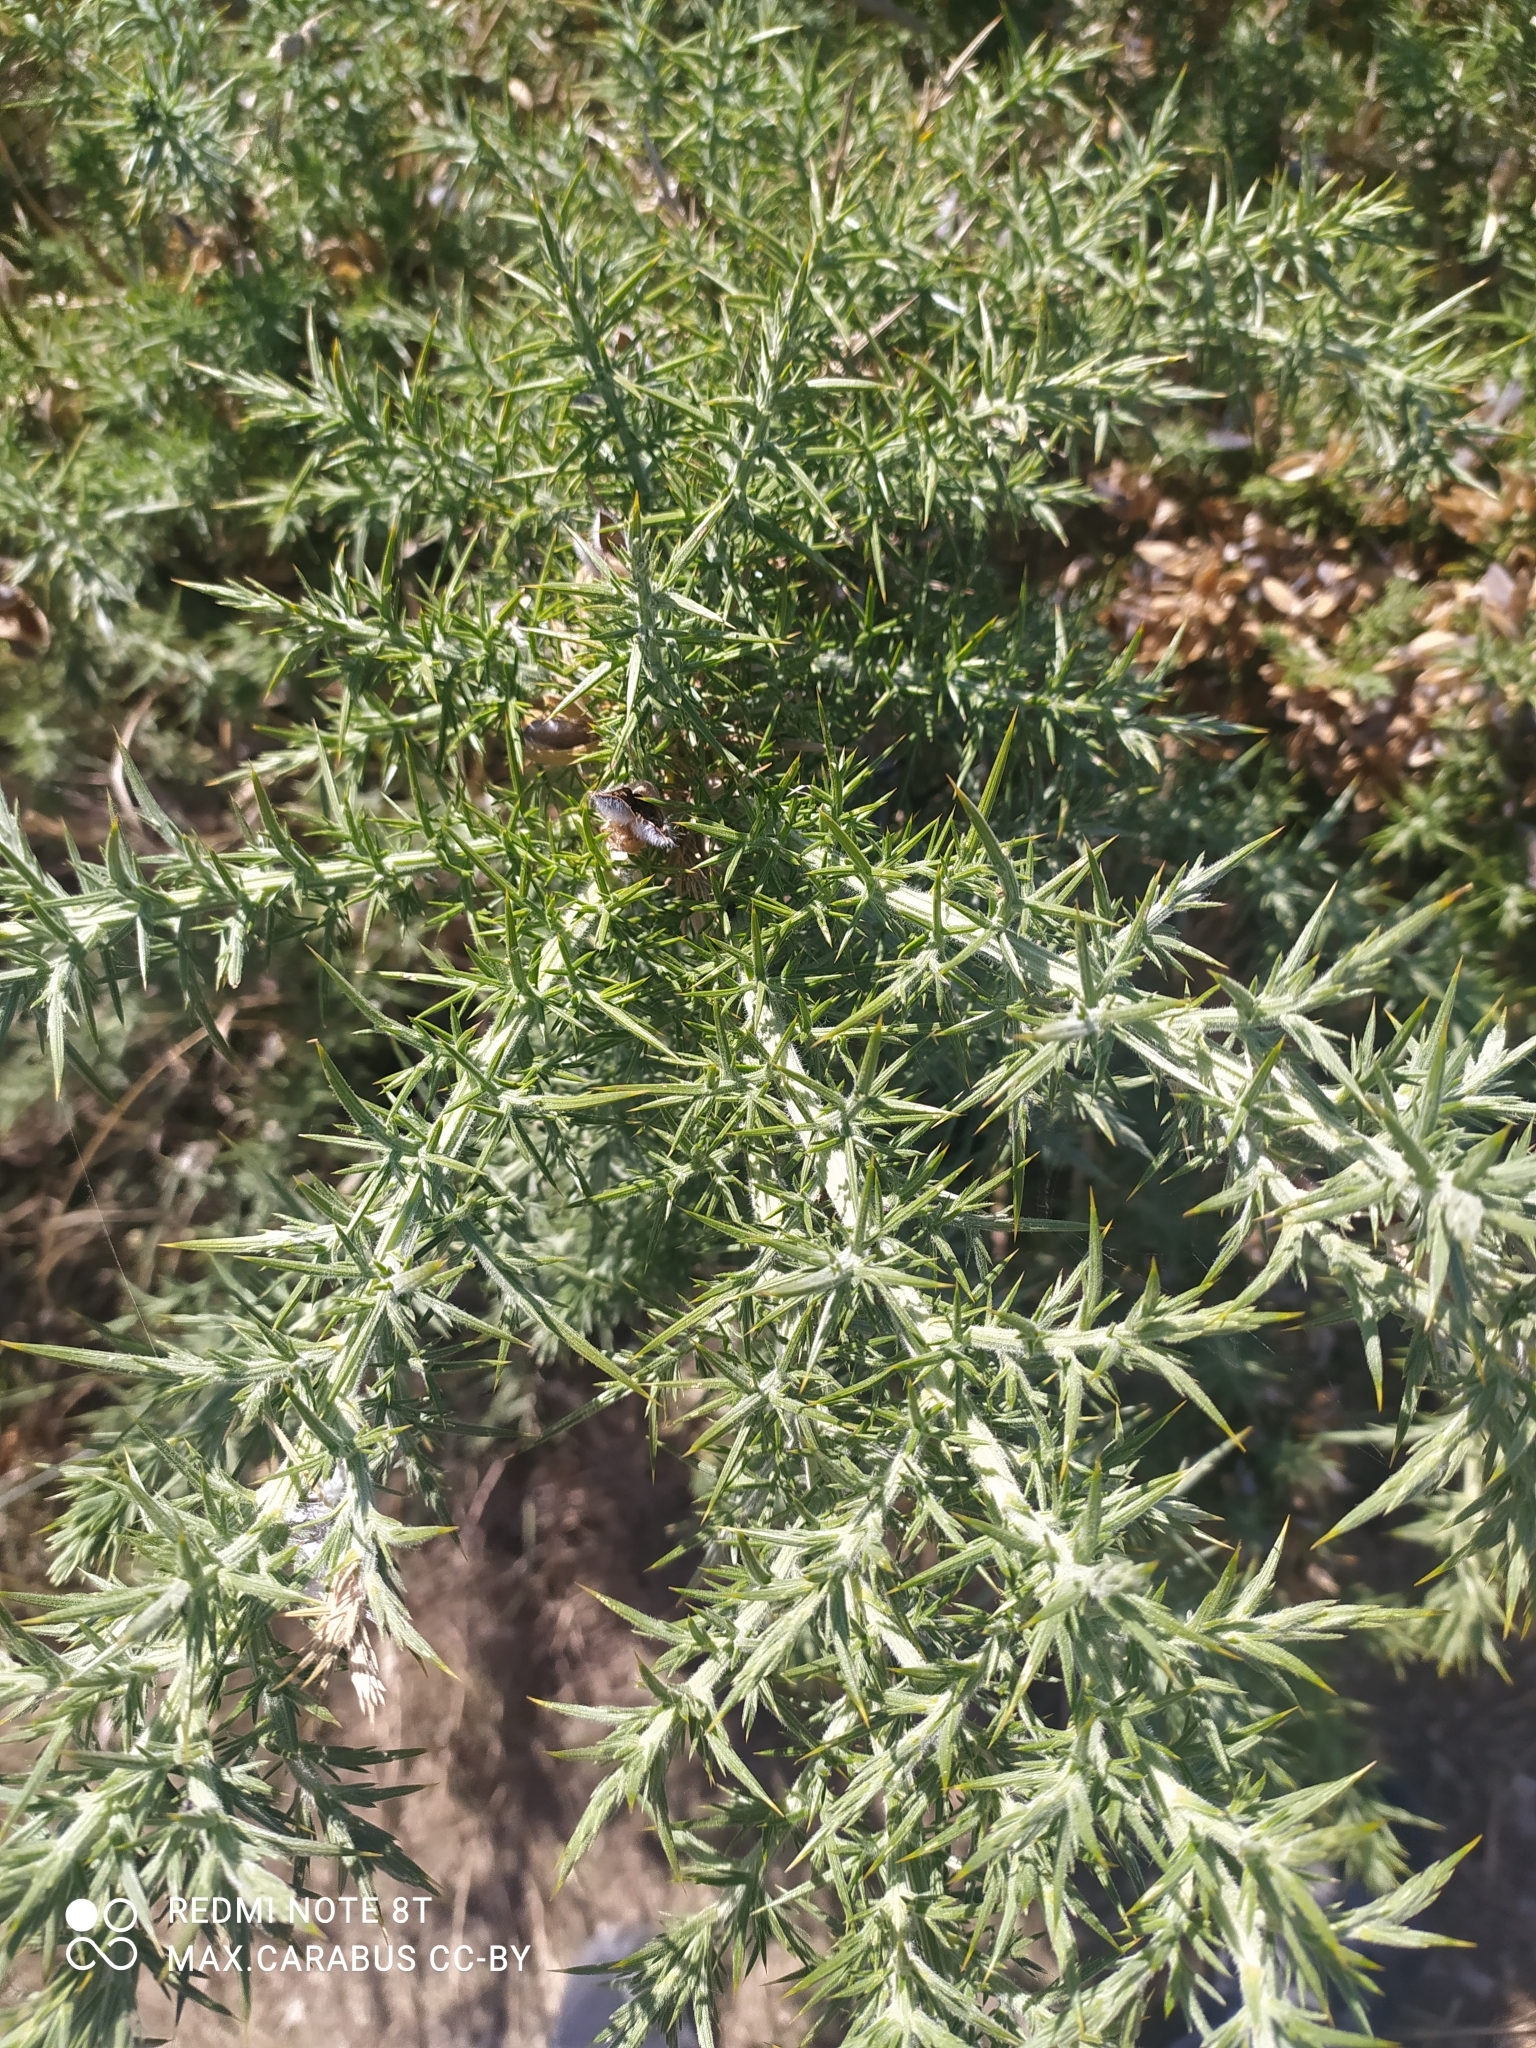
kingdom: Plantae
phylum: Tracheophyta
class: Magnoliopsida
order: Fabales
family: Fabaceae
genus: Ulex
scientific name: Ulex europaeus
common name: Common gorse
